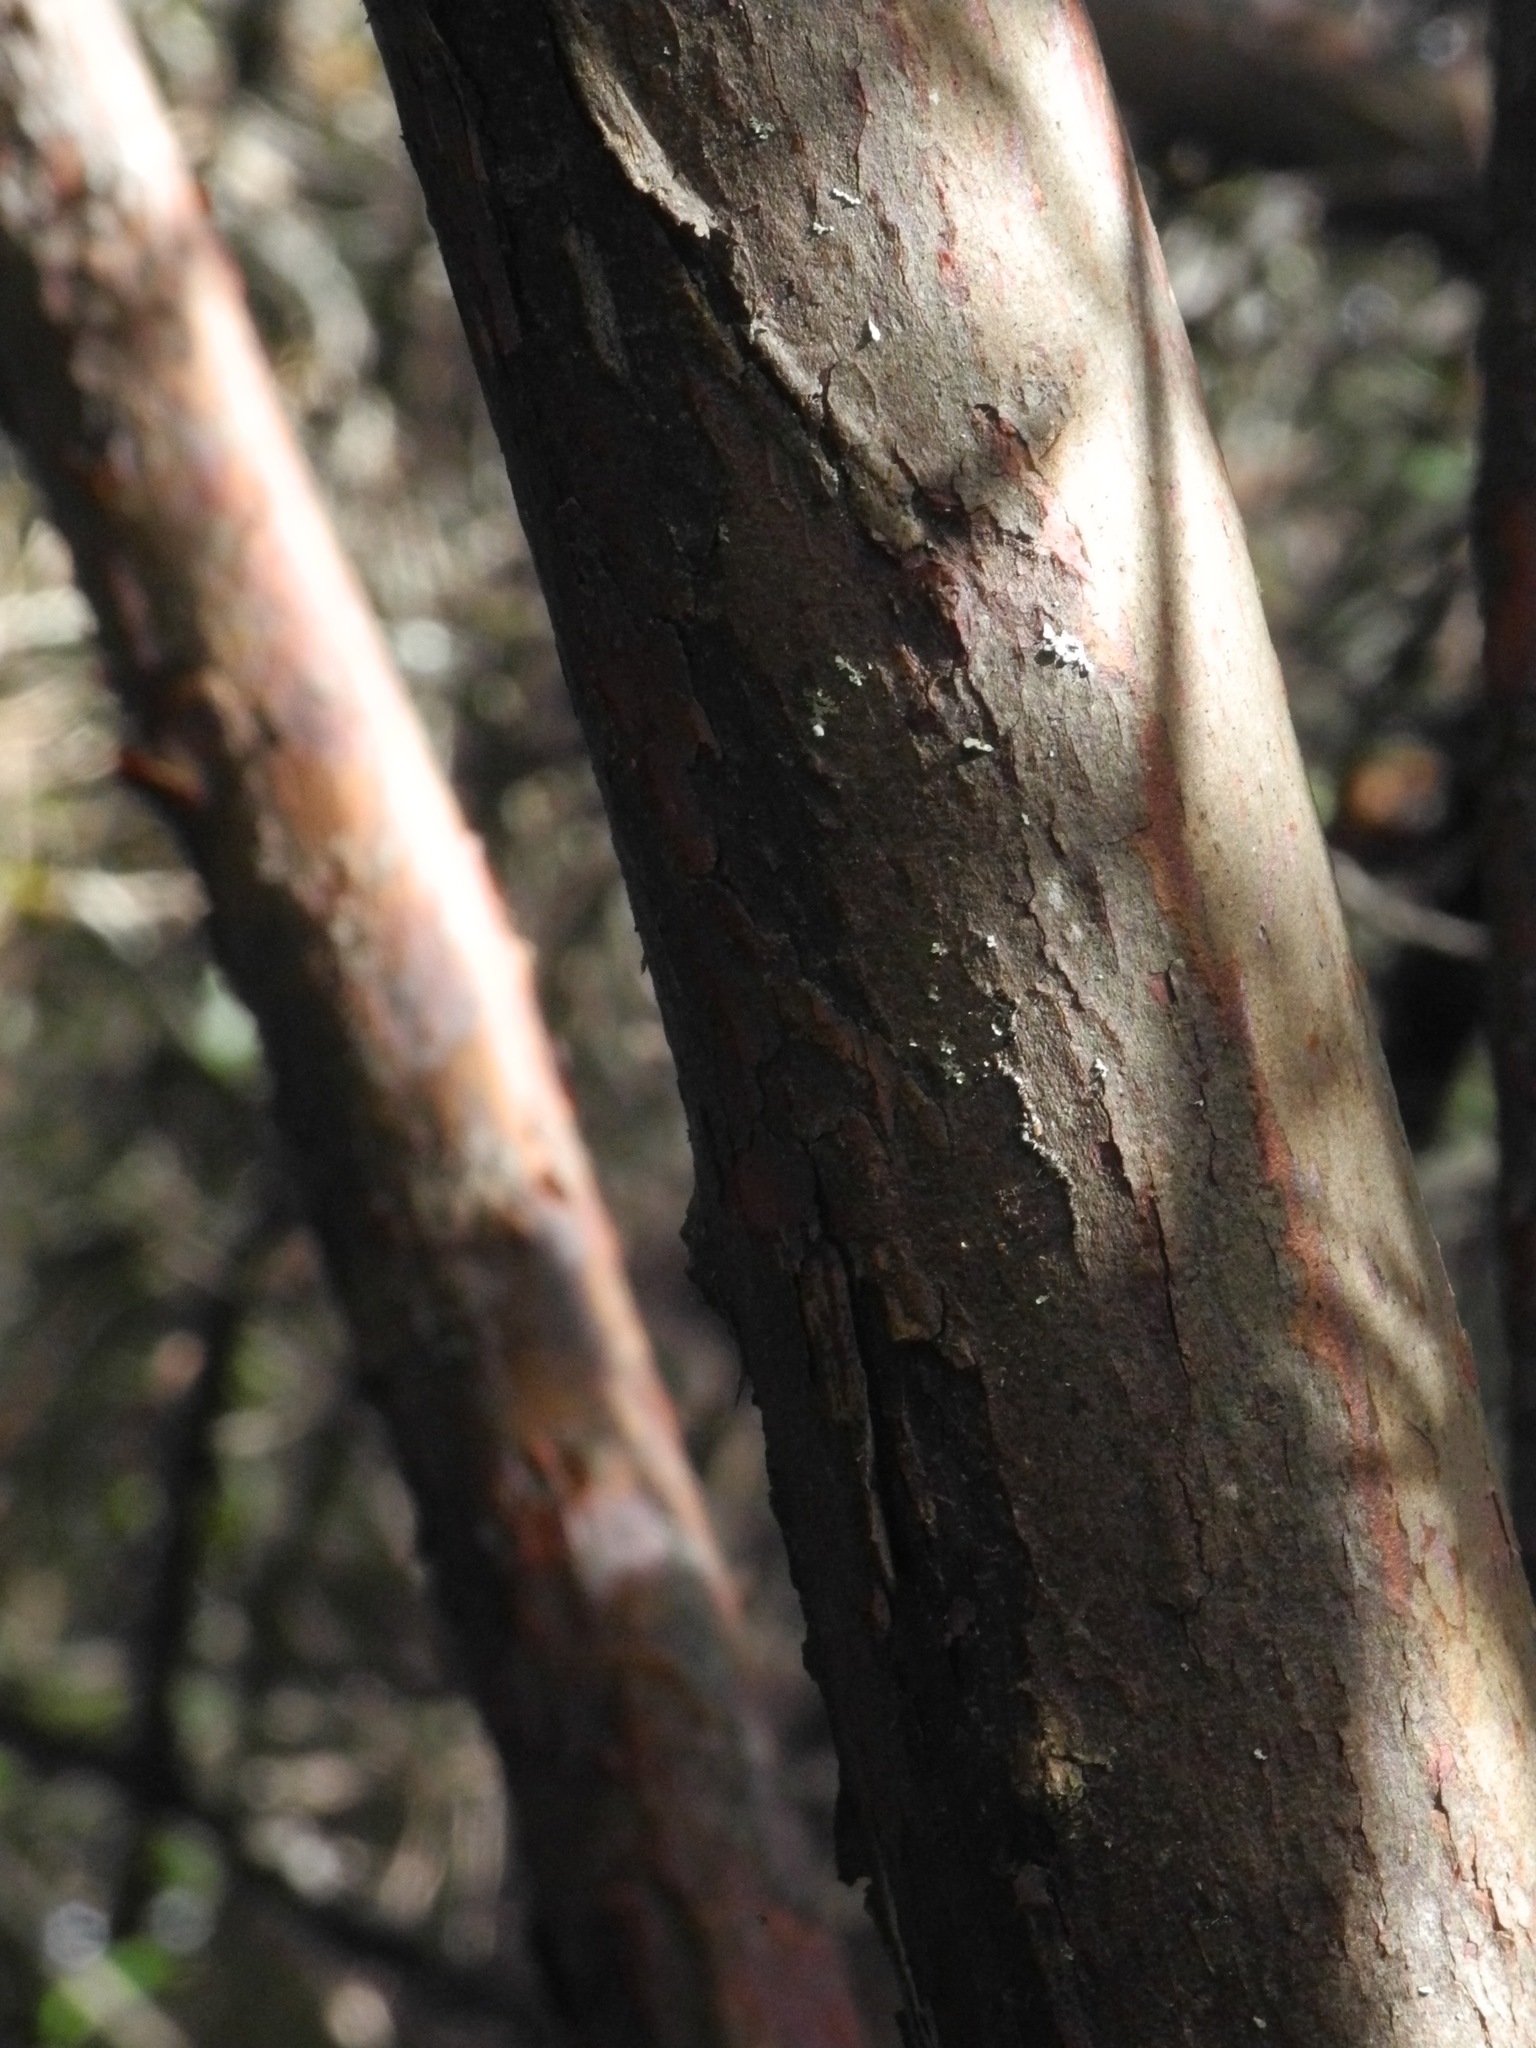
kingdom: Plantae
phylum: Tracheophyta
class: Magnoliopsida
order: Ericales
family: Clethraceae
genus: Clethra
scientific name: Clethra acuminata
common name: Mountain sweet pepperbush
